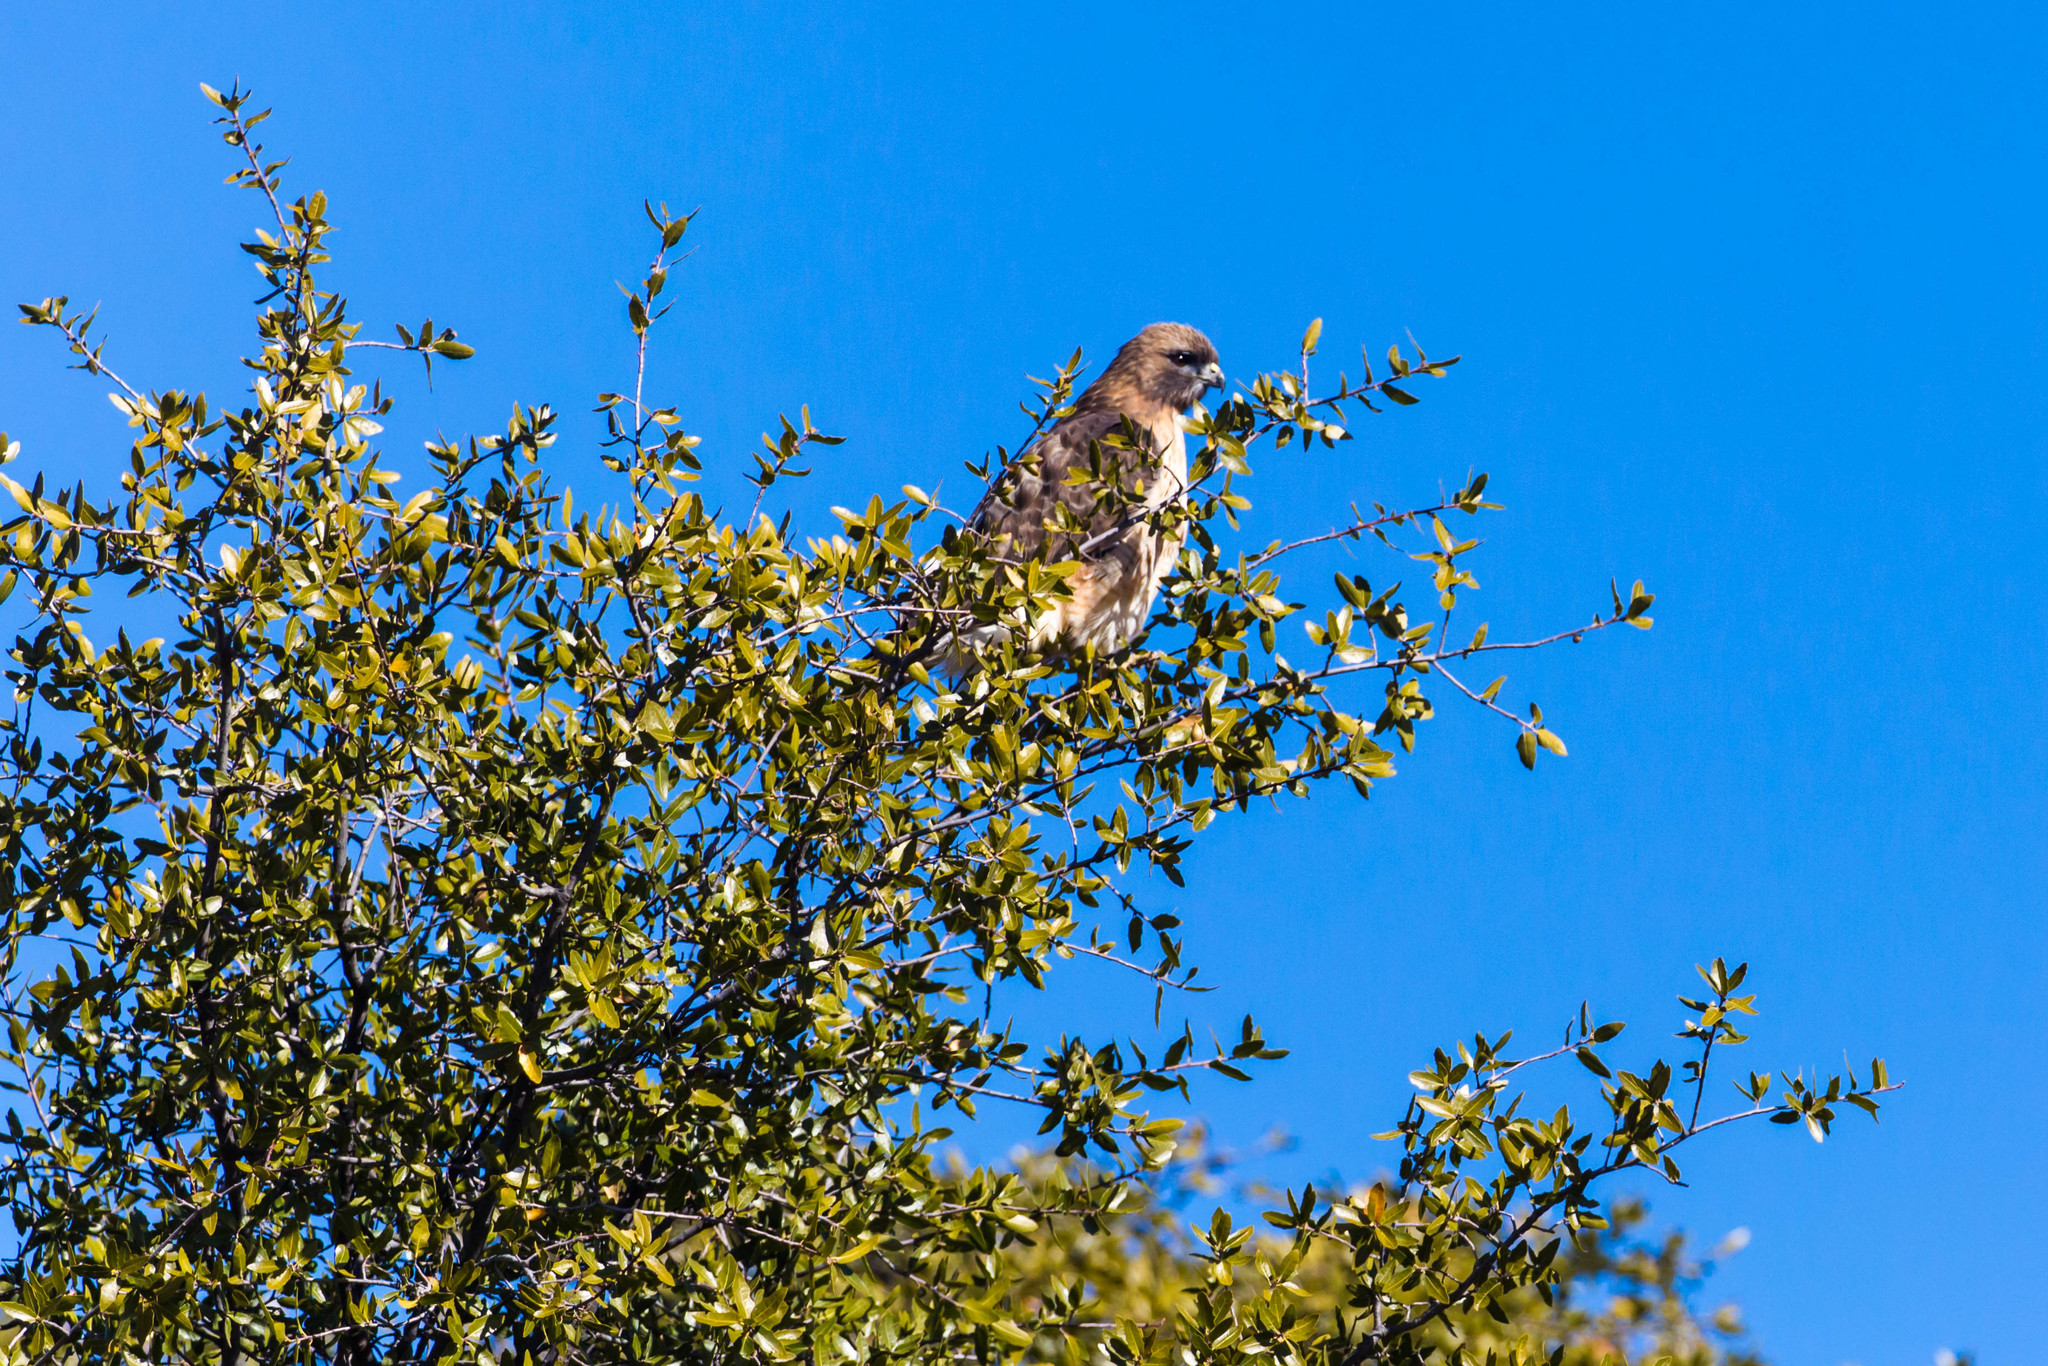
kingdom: Animalia
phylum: Chordata
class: Aves
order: Accipitriformes
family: Accipitridae
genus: Buteo
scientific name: Buteo jamaicensis
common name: Red-tailed hawk
